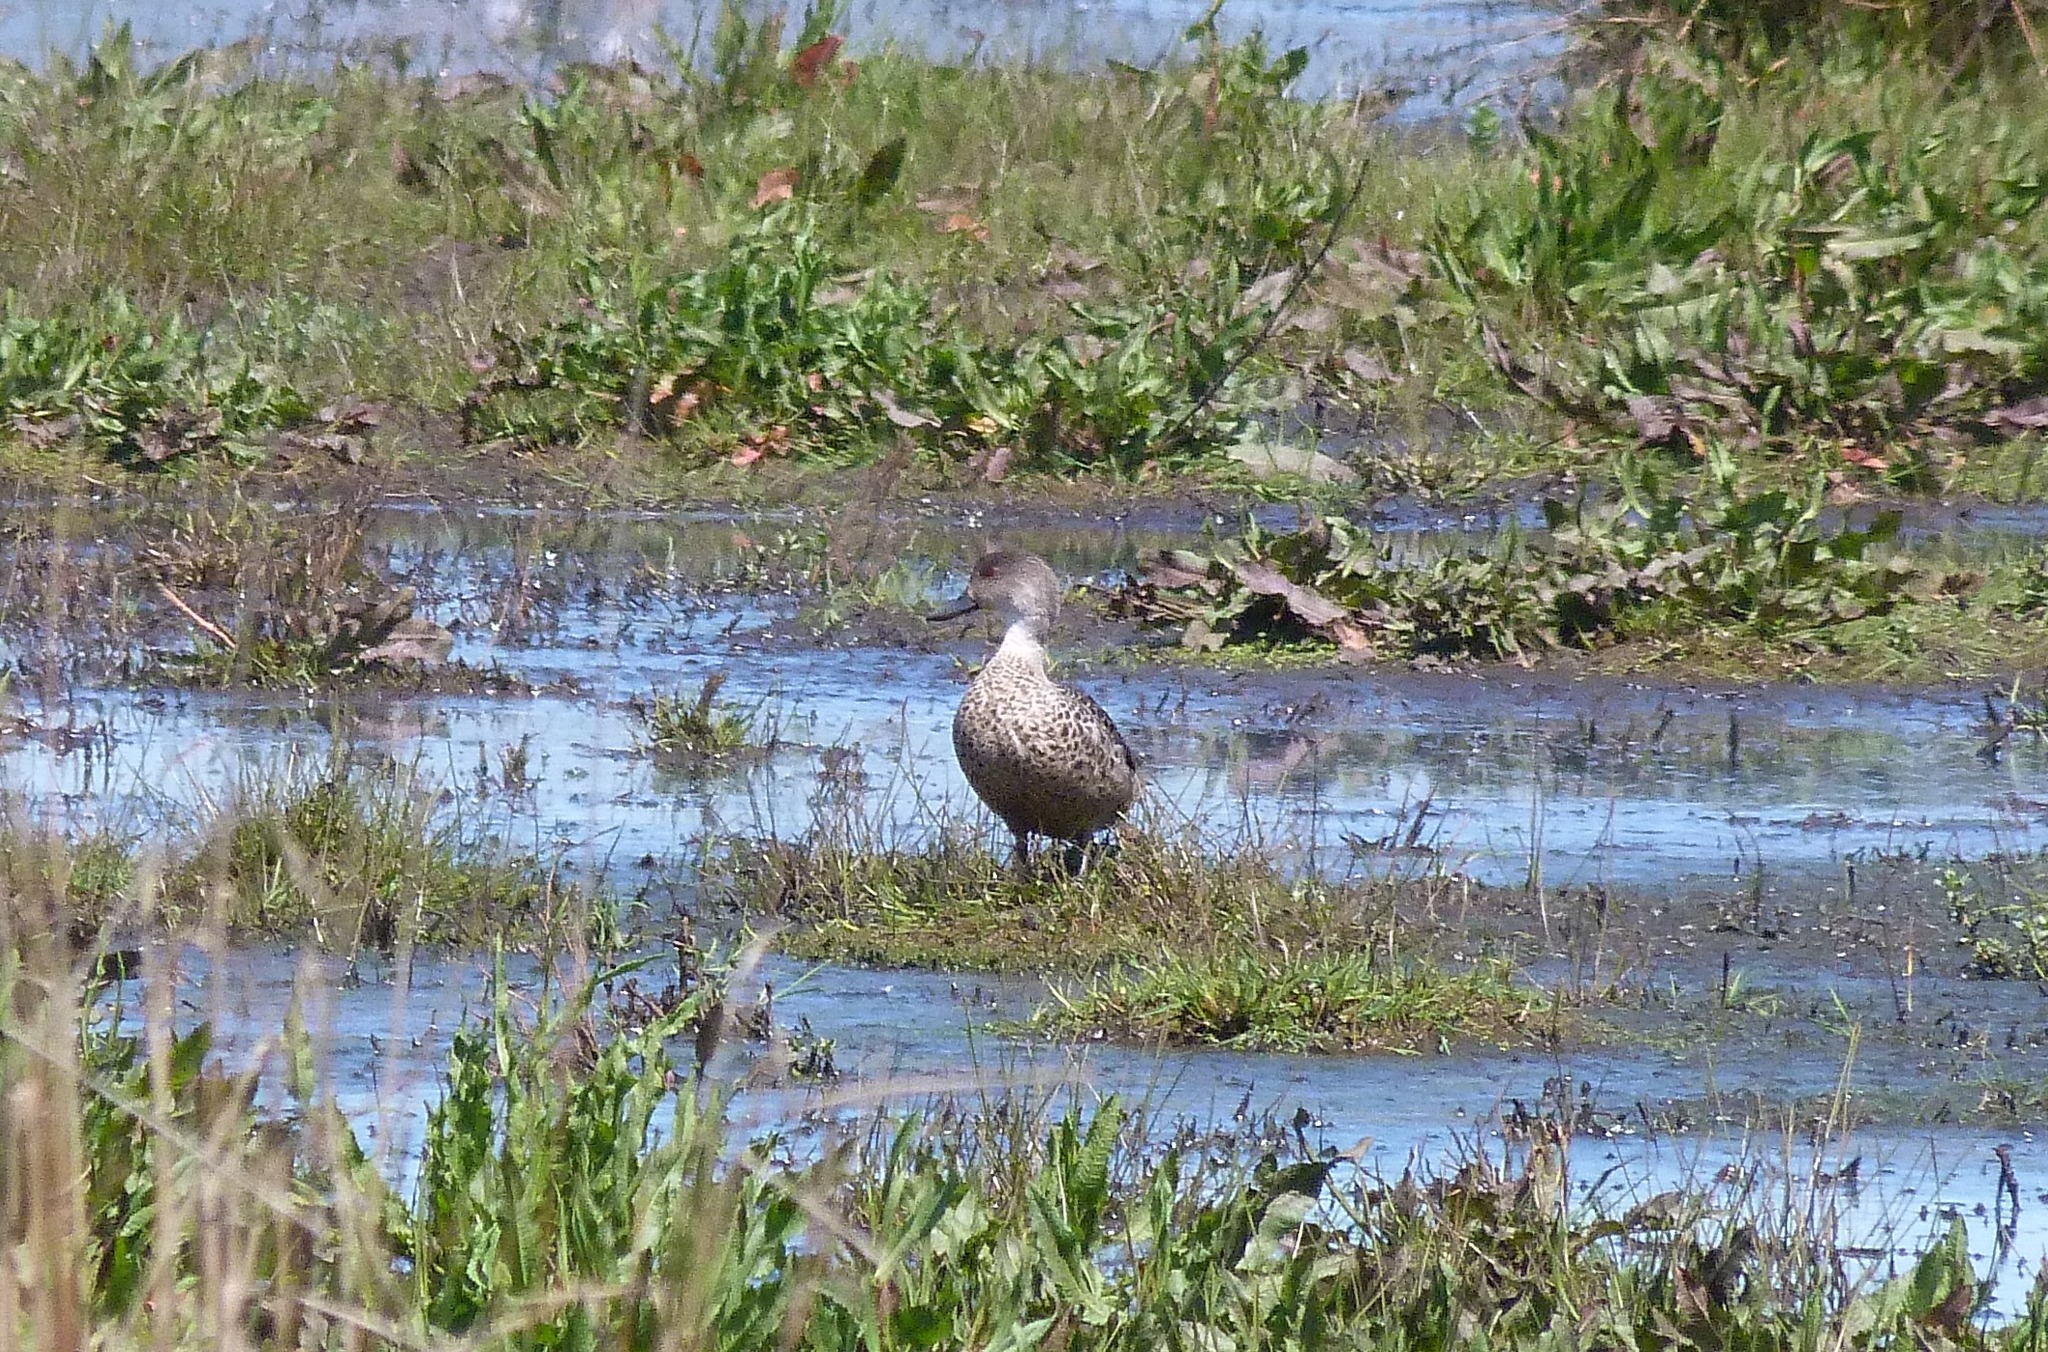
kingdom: Animalia
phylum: Chordata
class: Aves
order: Anseriformes
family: Anatidae
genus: Anas
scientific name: Anas gracilis
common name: Grey teal
